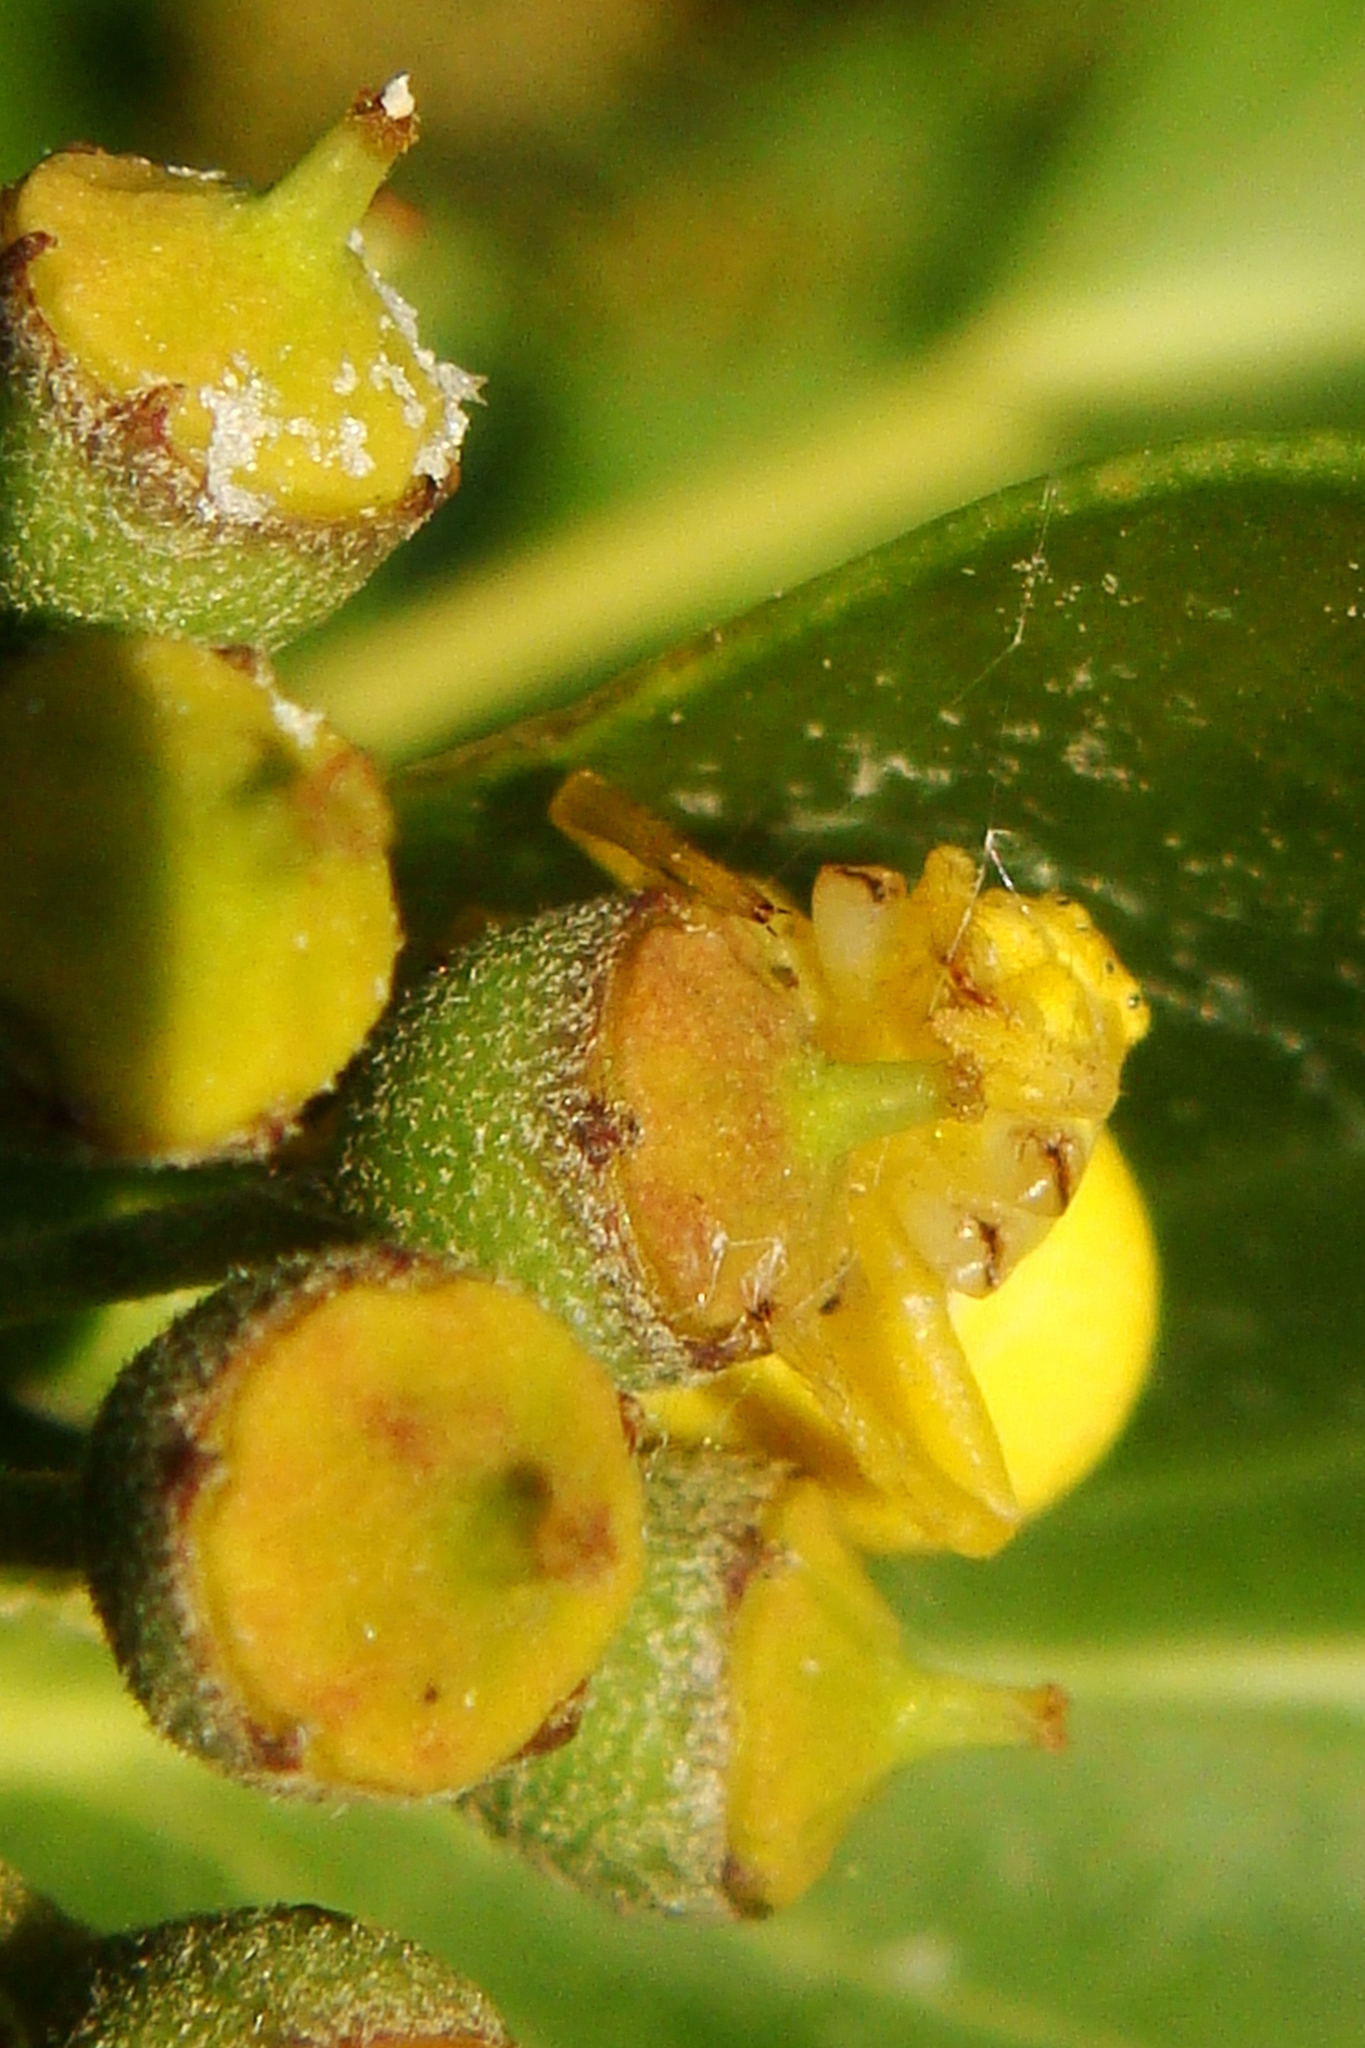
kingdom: Animalia
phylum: Arthropoda
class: Arachnida
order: Araneae
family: Thomisidae
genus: Misumena
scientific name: Misumena vatia
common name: Goldenrod crab spider
